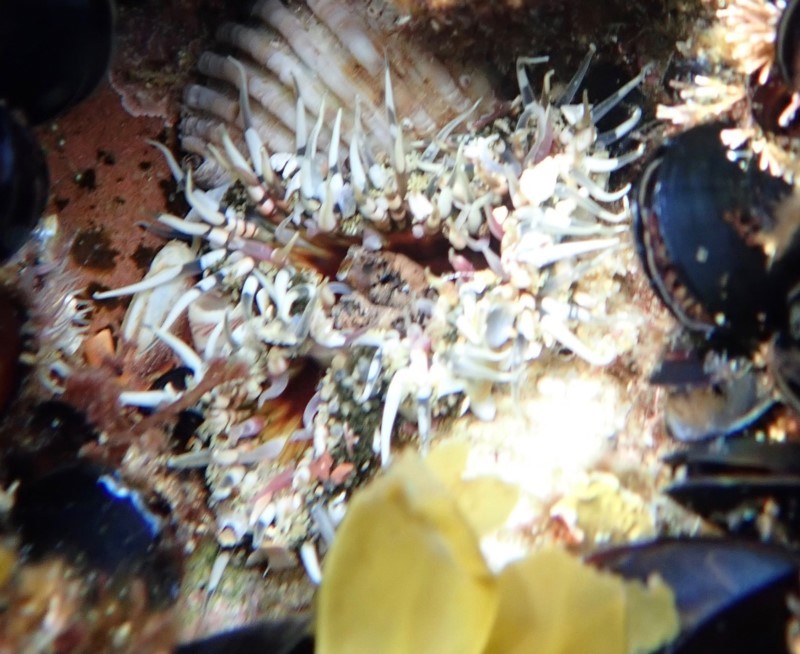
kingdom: Animalia
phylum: Cnidaria
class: Anthozoa
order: Actiniaria
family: Actiniidae
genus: Oulactis
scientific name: Oulactis muscosa
